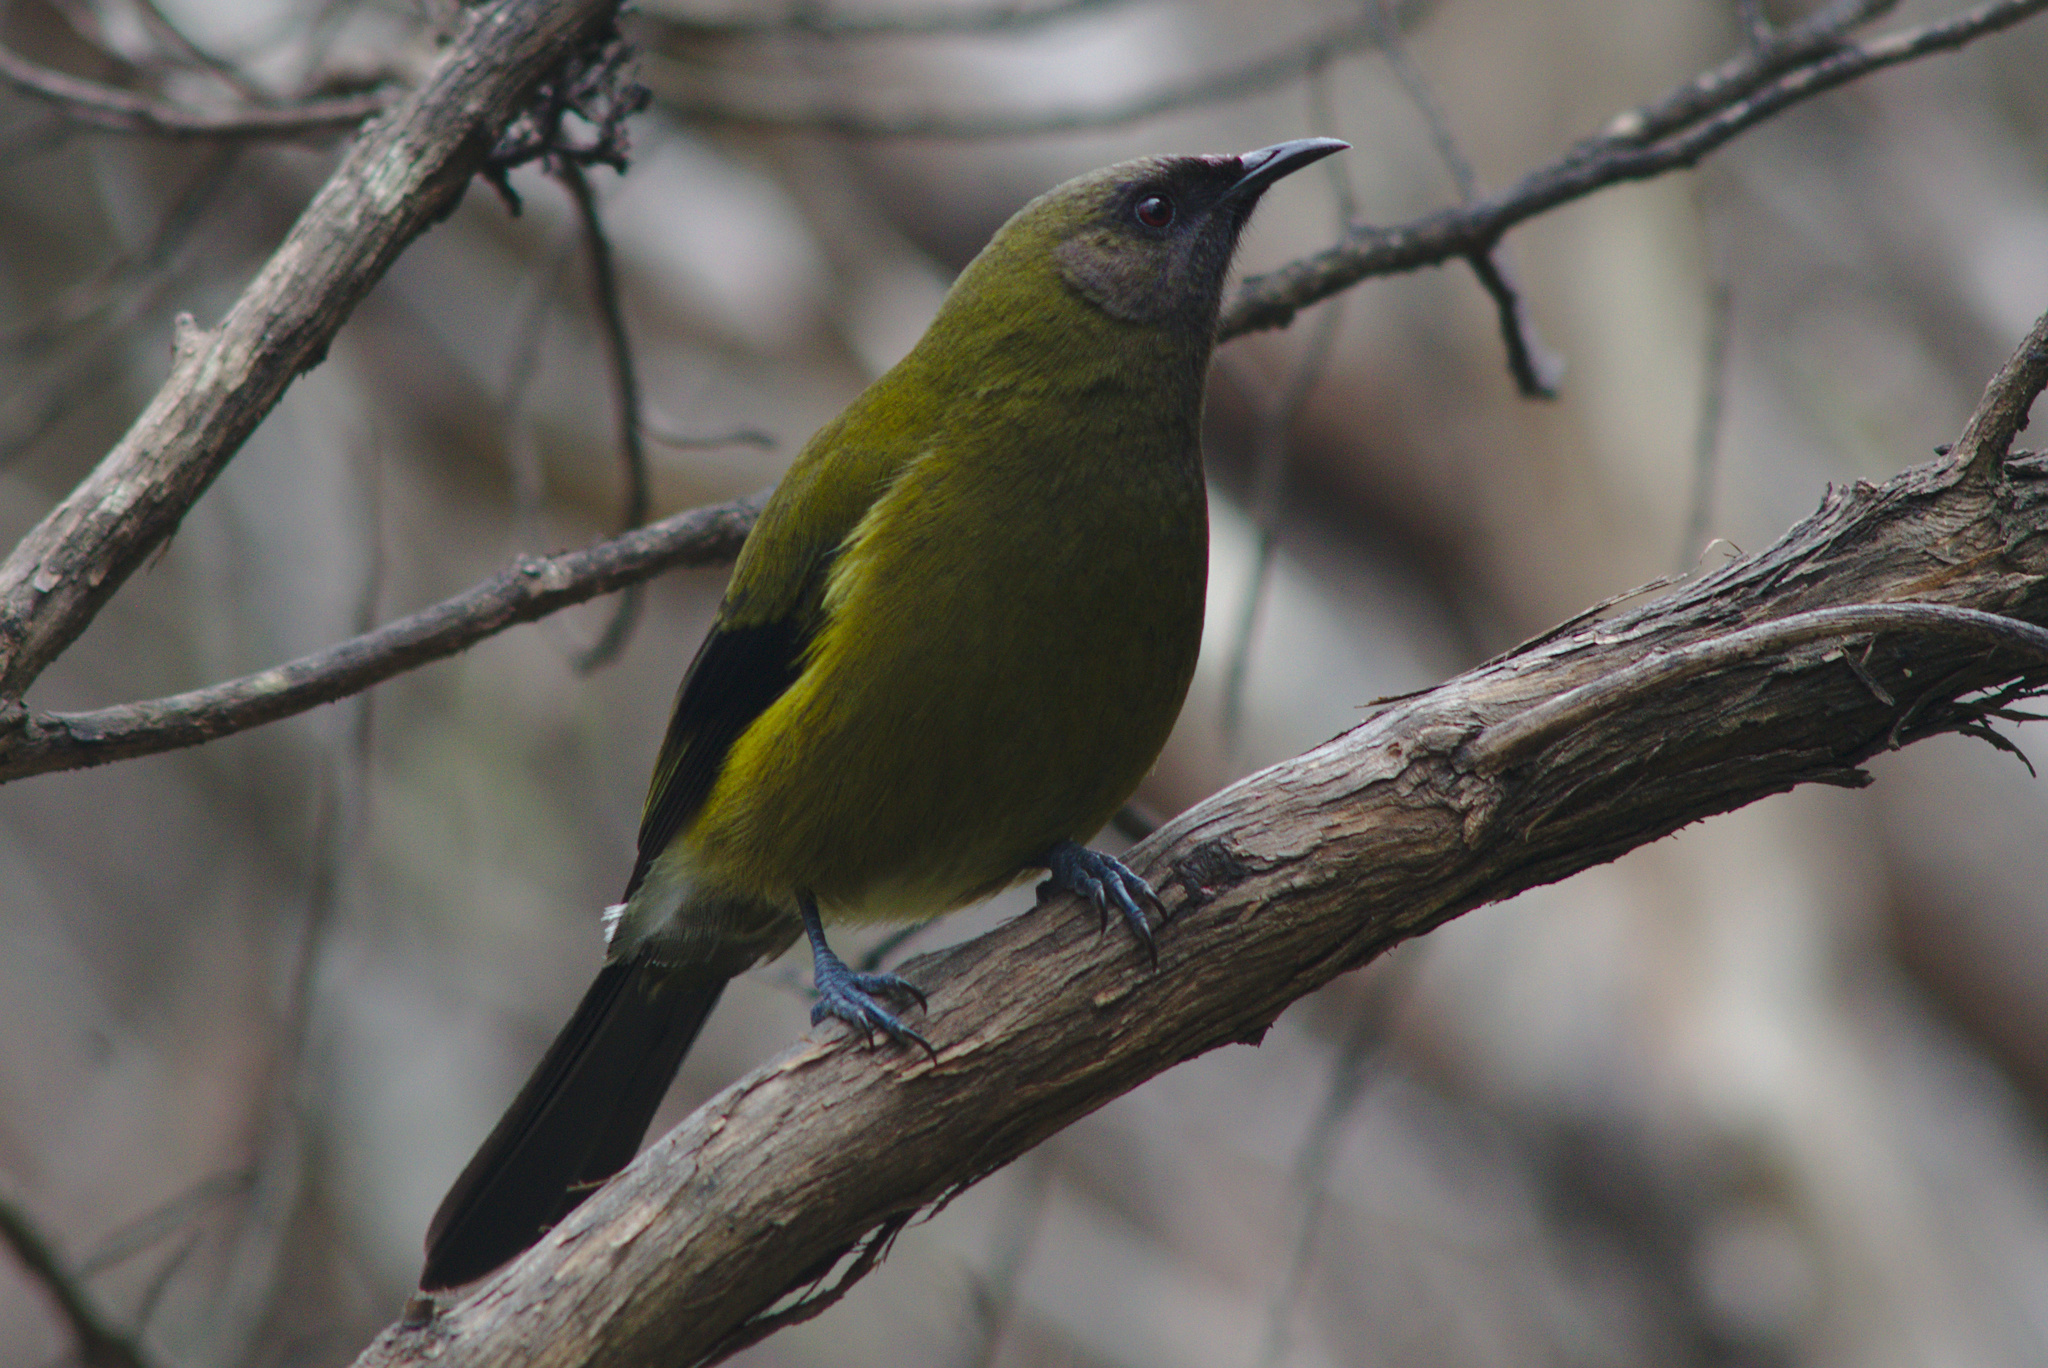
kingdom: Animalia
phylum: Chordata
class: Aves
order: Passeriformes
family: Meliphagidae
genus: Anthornis
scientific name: Anthornis melanura
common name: New zealand bellbird
